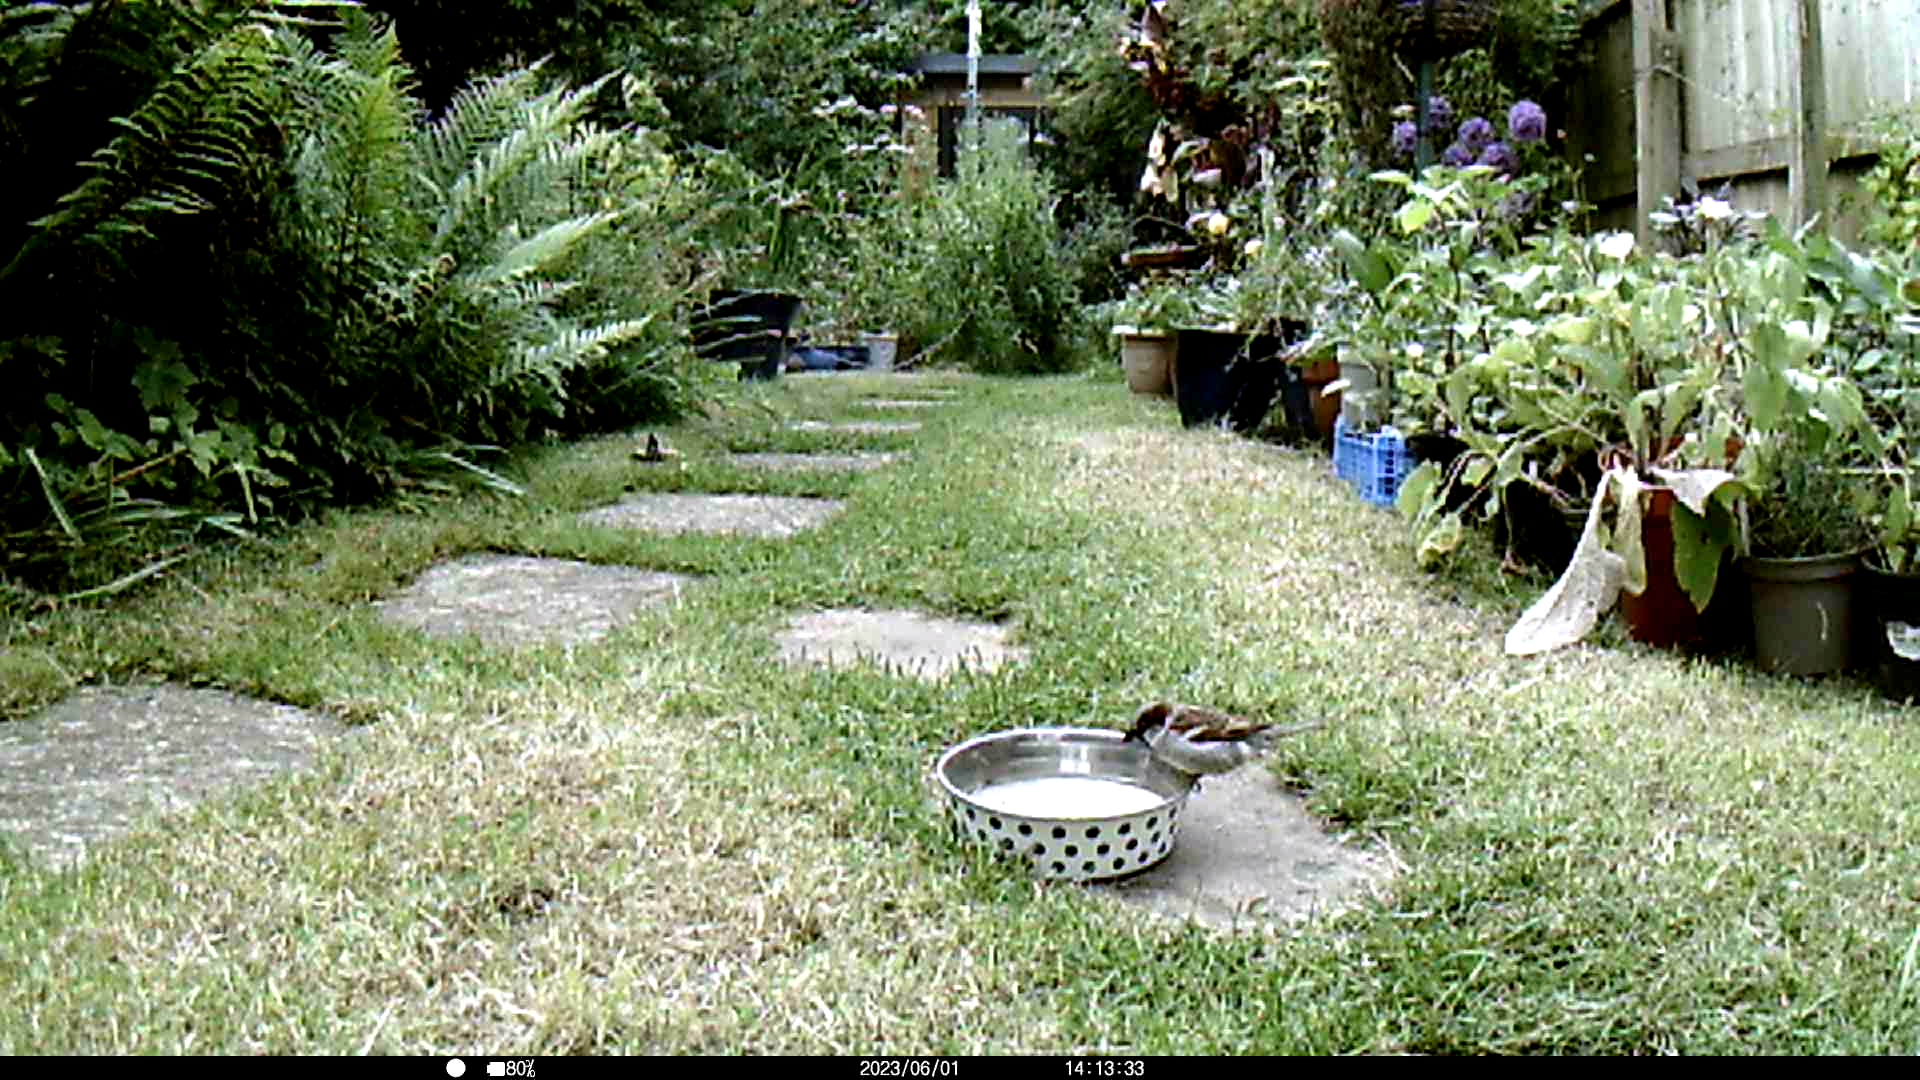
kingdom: Animalia
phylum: Chordata
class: Aves
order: Passeriformes
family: Passeridae
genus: Passer
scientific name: Passer domesticus
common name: House sparrow
